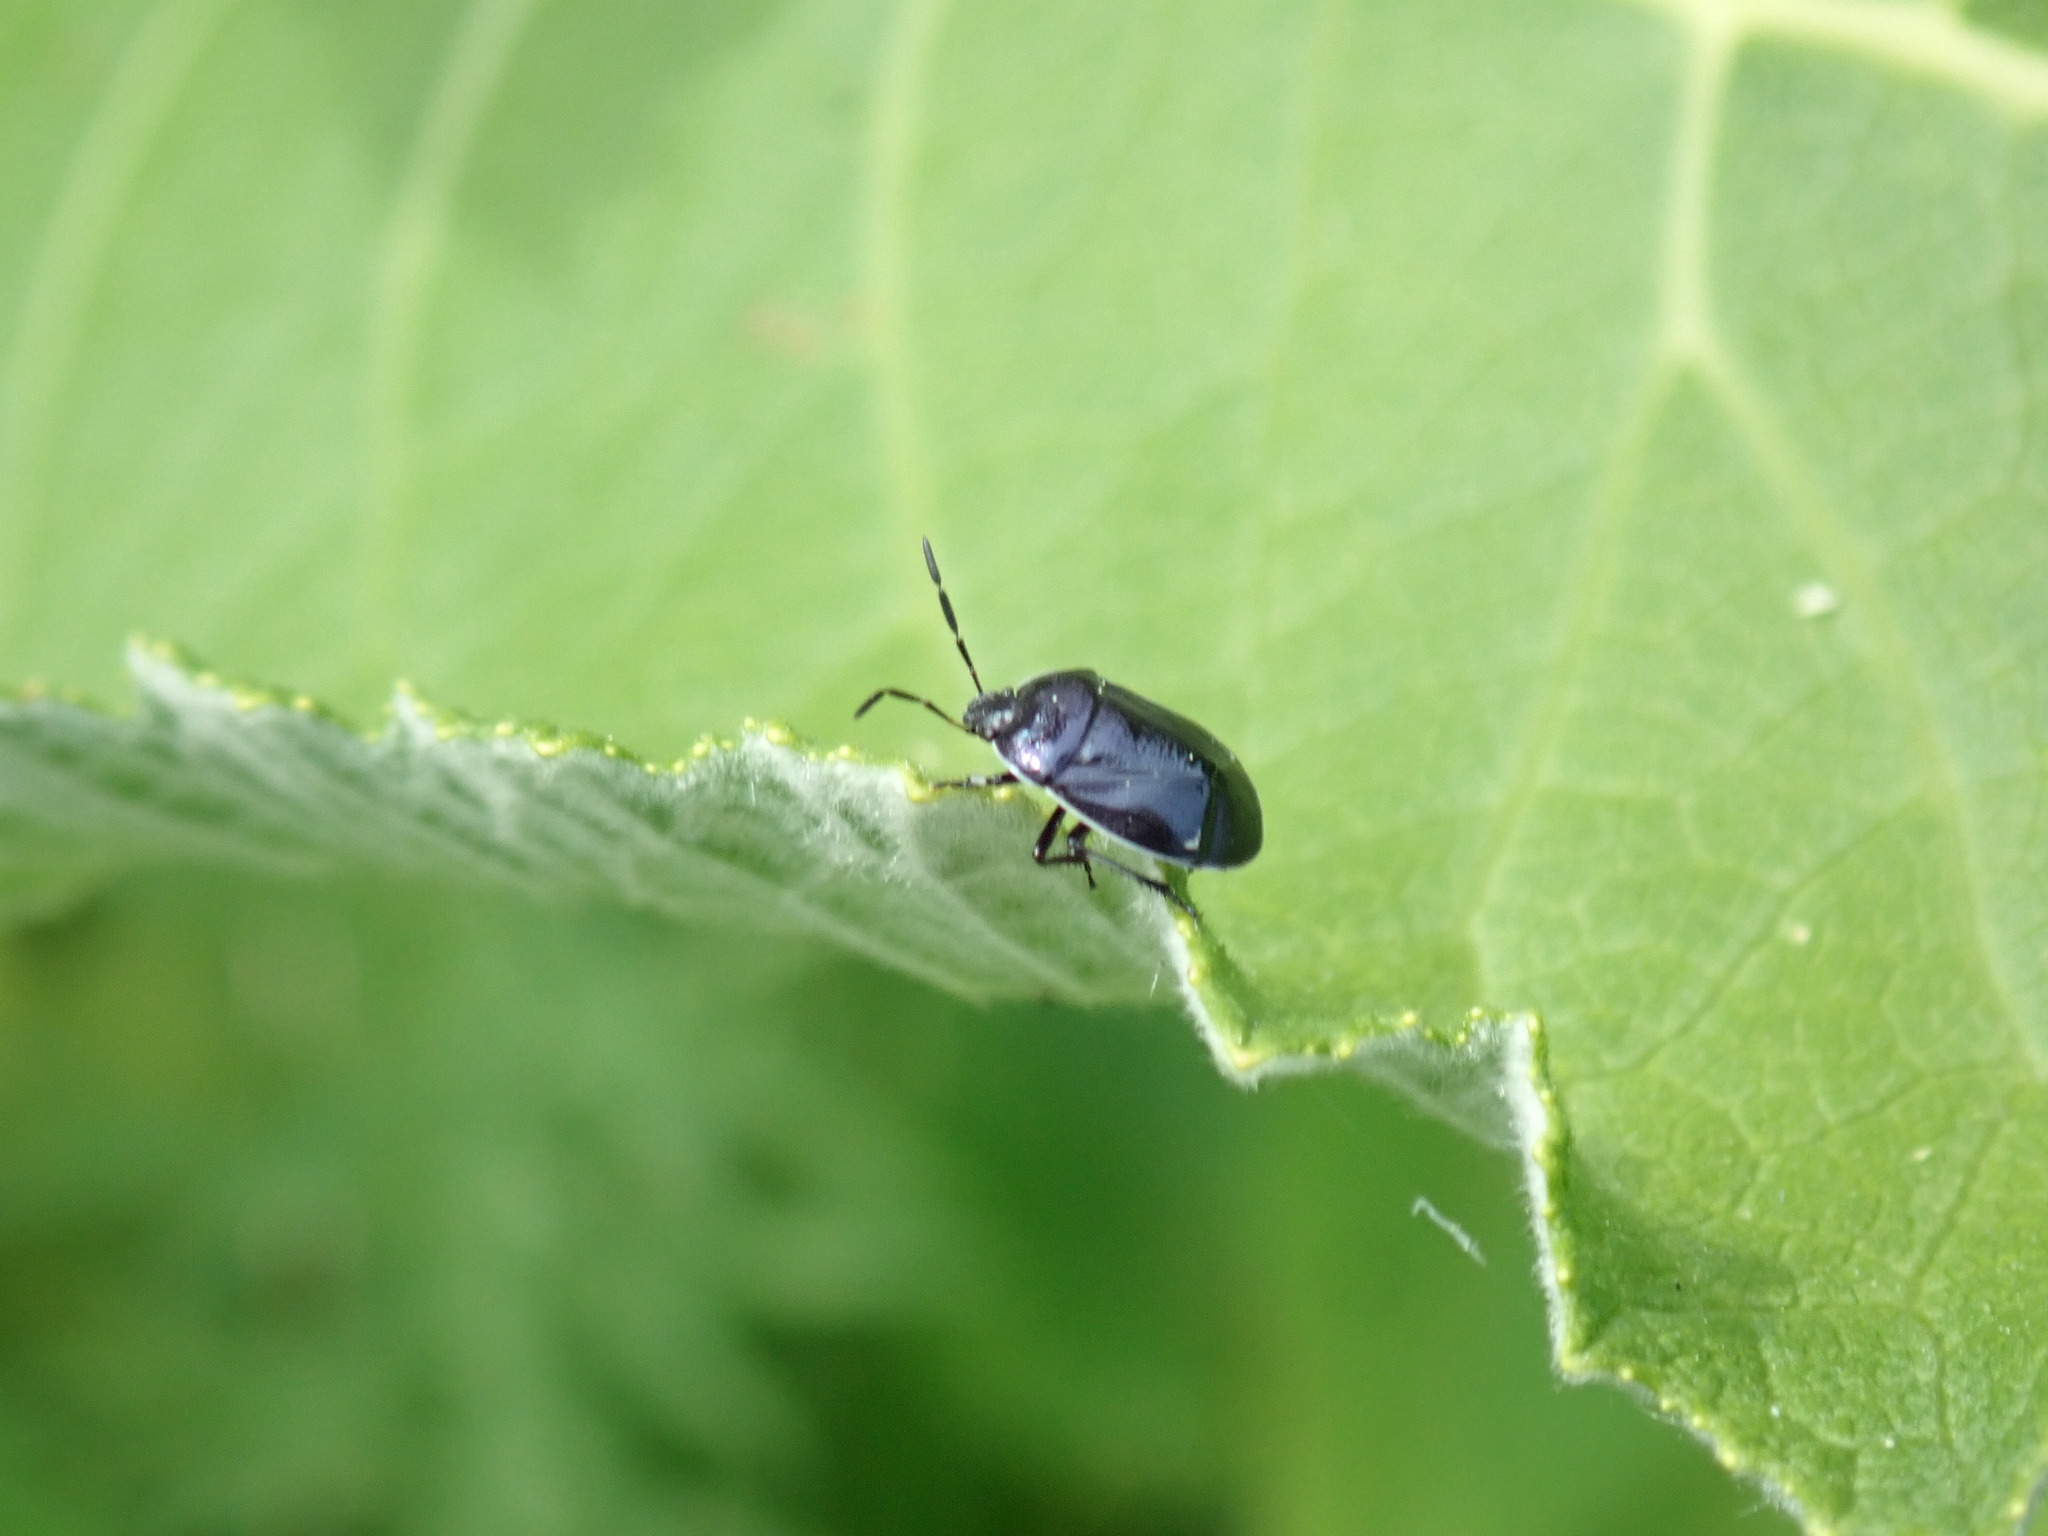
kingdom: Animalia
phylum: Arthropoda
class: Insecta
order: Hemiptera
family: Cydnidae
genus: Sehirus
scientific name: Sehirus cinctus
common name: White-margined burrower bug
